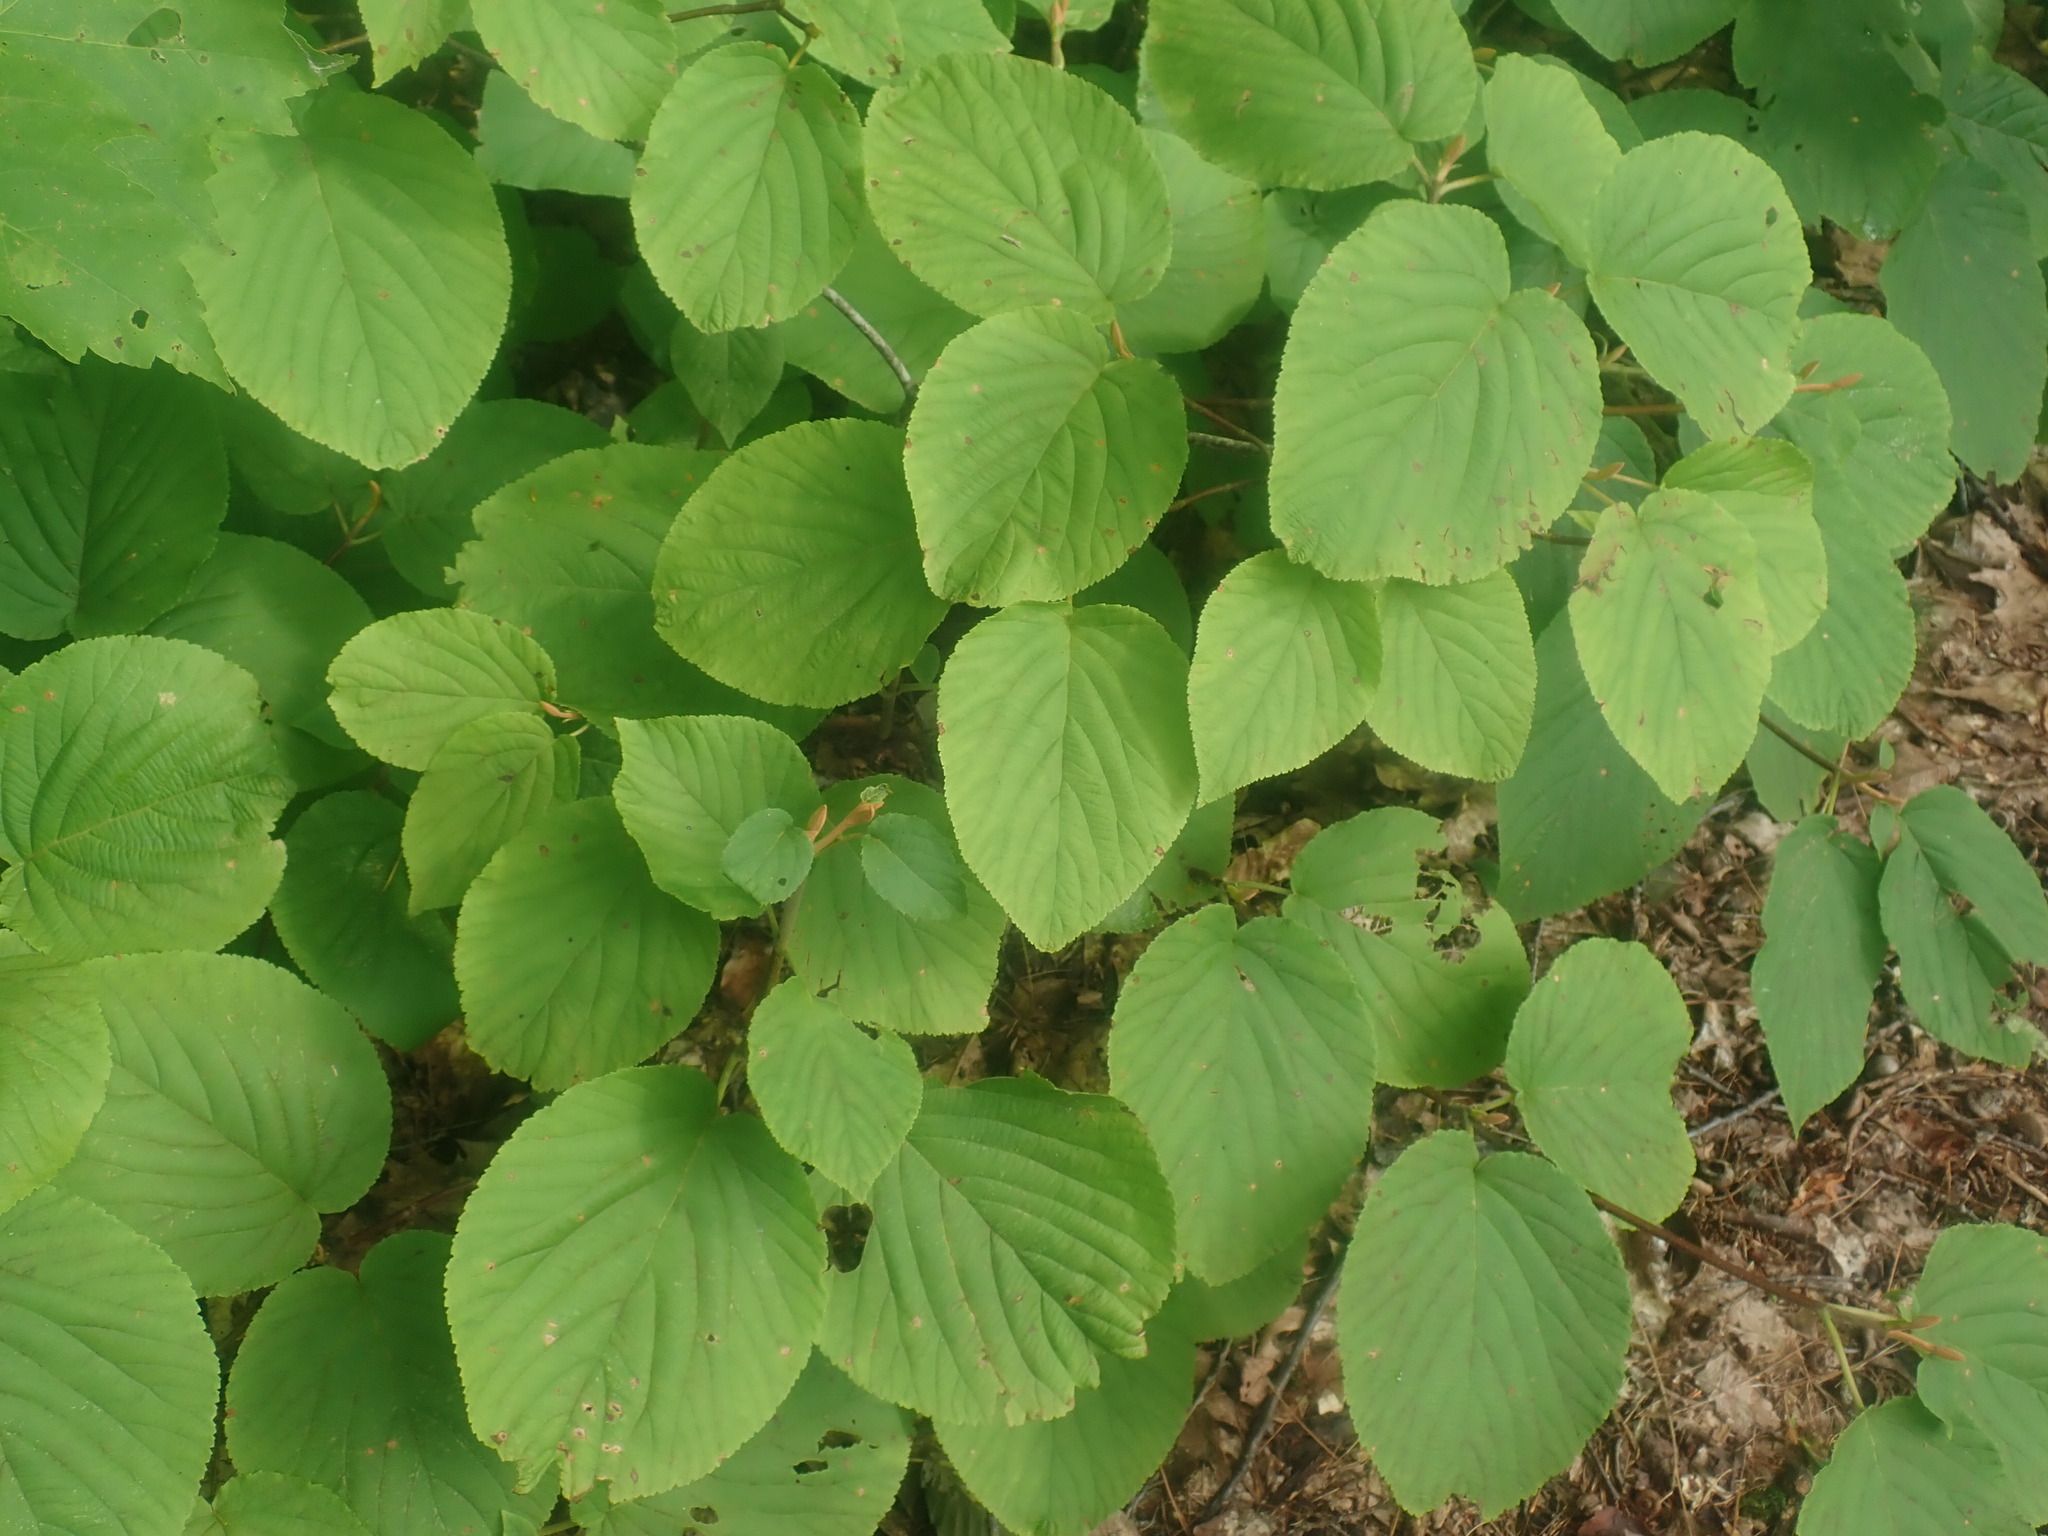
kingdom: Plantae
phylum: Tracheophyta
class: Magnoliopsida
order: Dipsacales
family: Viburnaceae
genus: Viburnum
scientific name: Viburnum lantanoides
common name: Hobblebush
